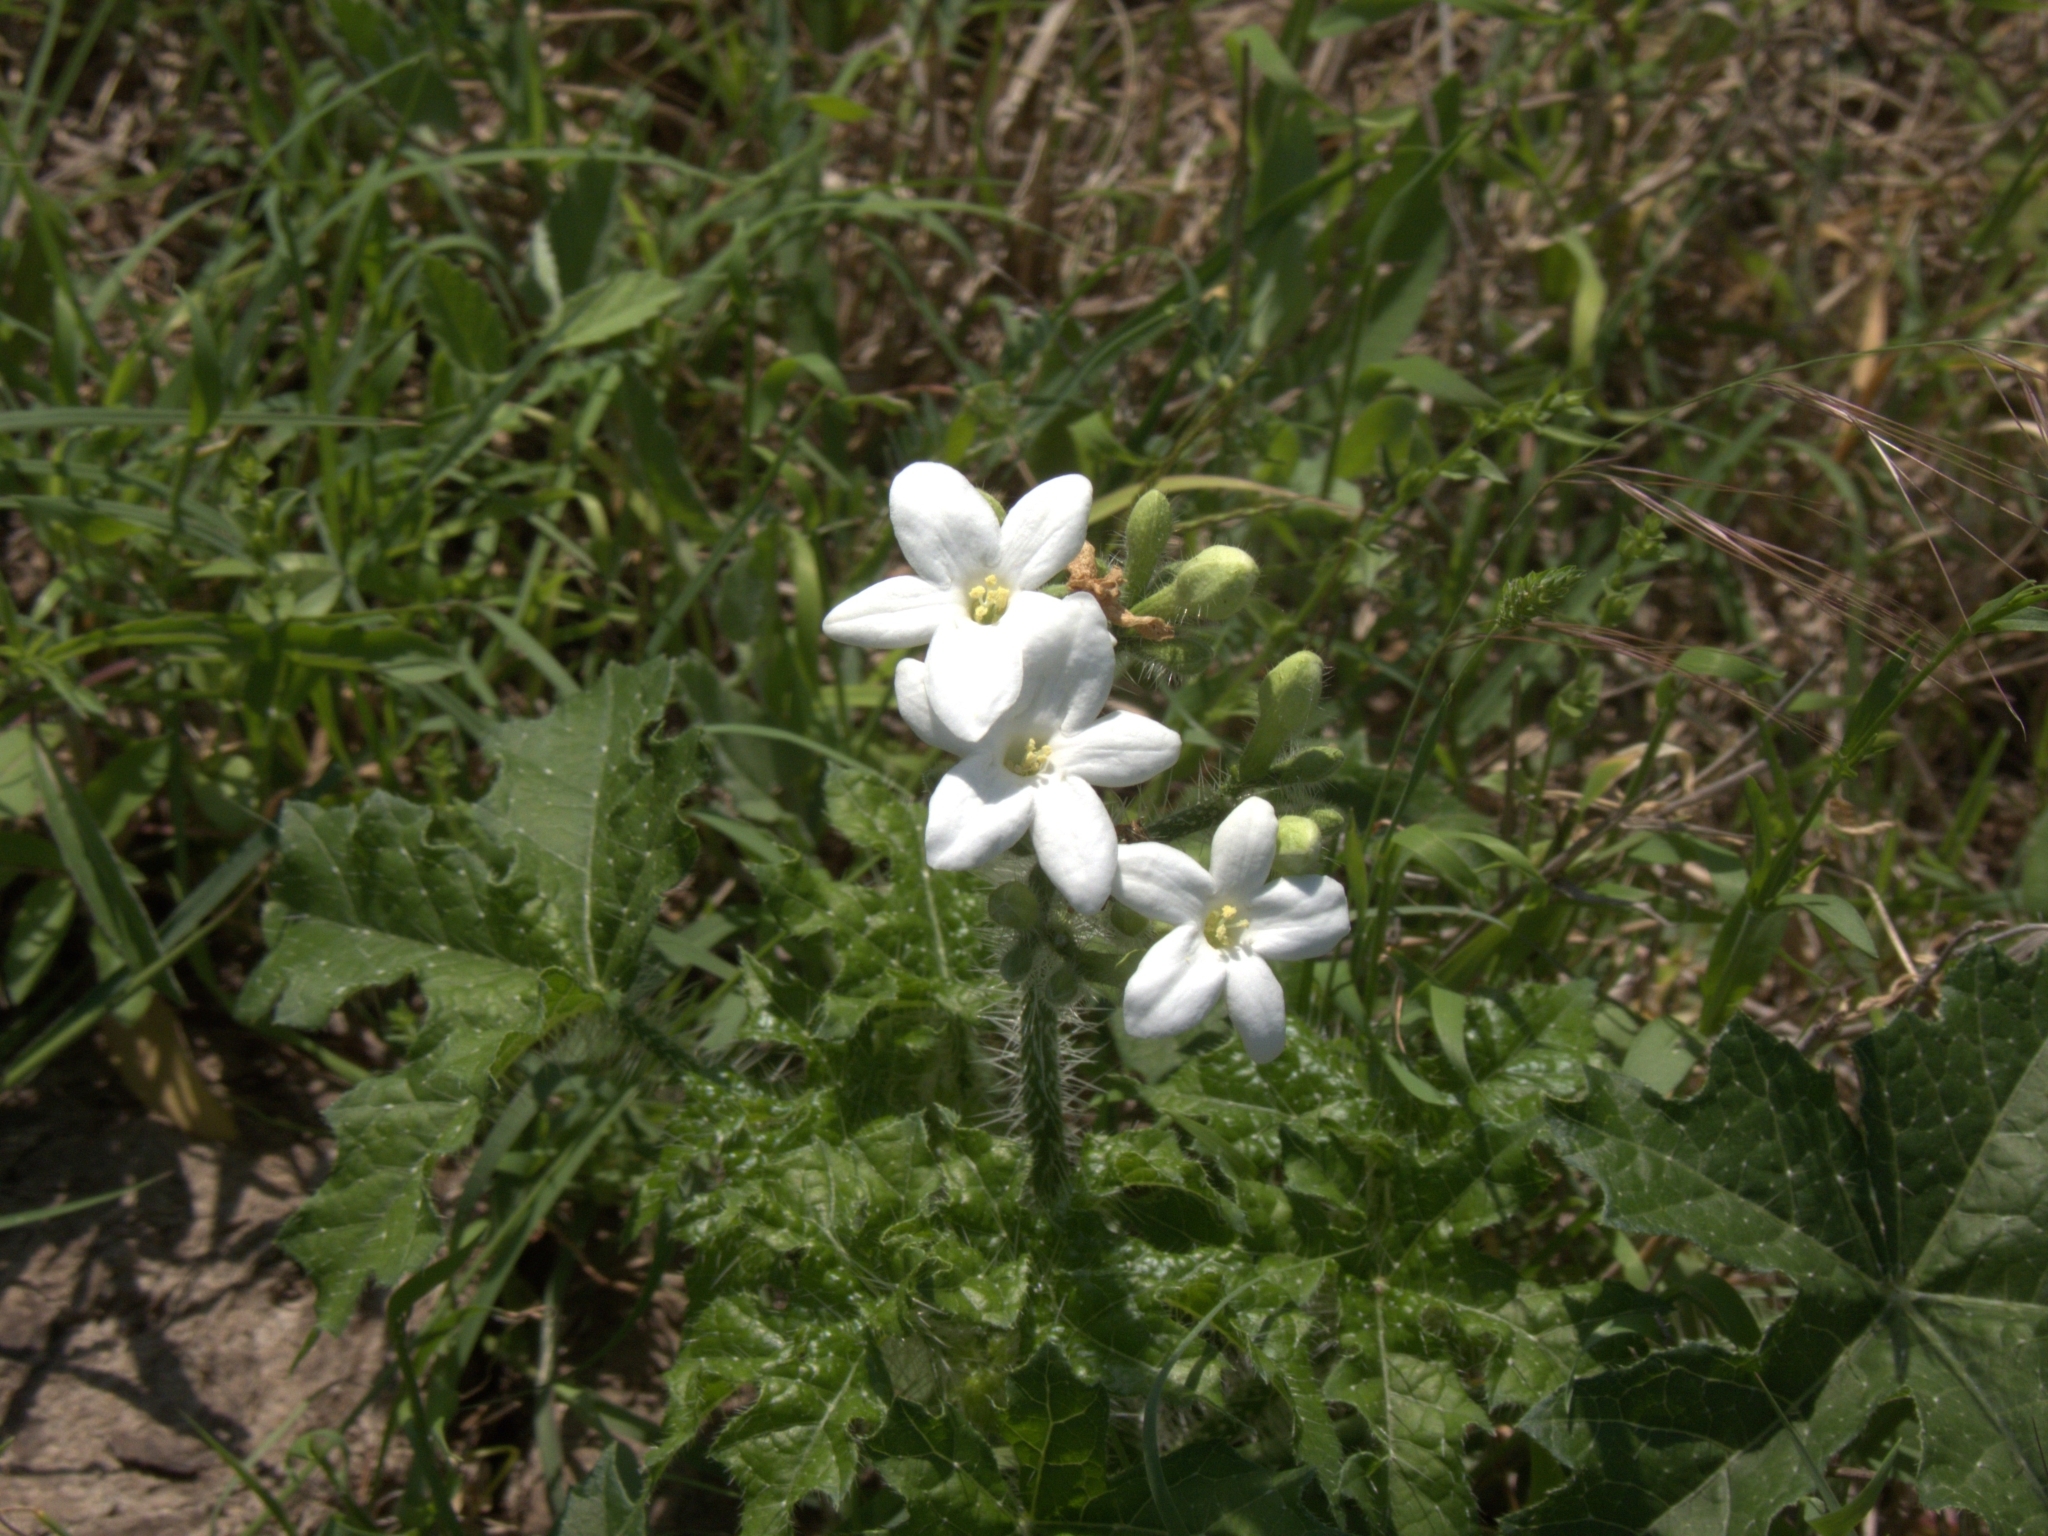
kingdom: Plantae
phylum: Tracheophyta
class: Magnoliopsida
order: Malpighiales
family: Euphorbiaceae
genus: Cnidoscolus
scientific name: Cnidoscolus texanus
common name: Texas bull-nettle
